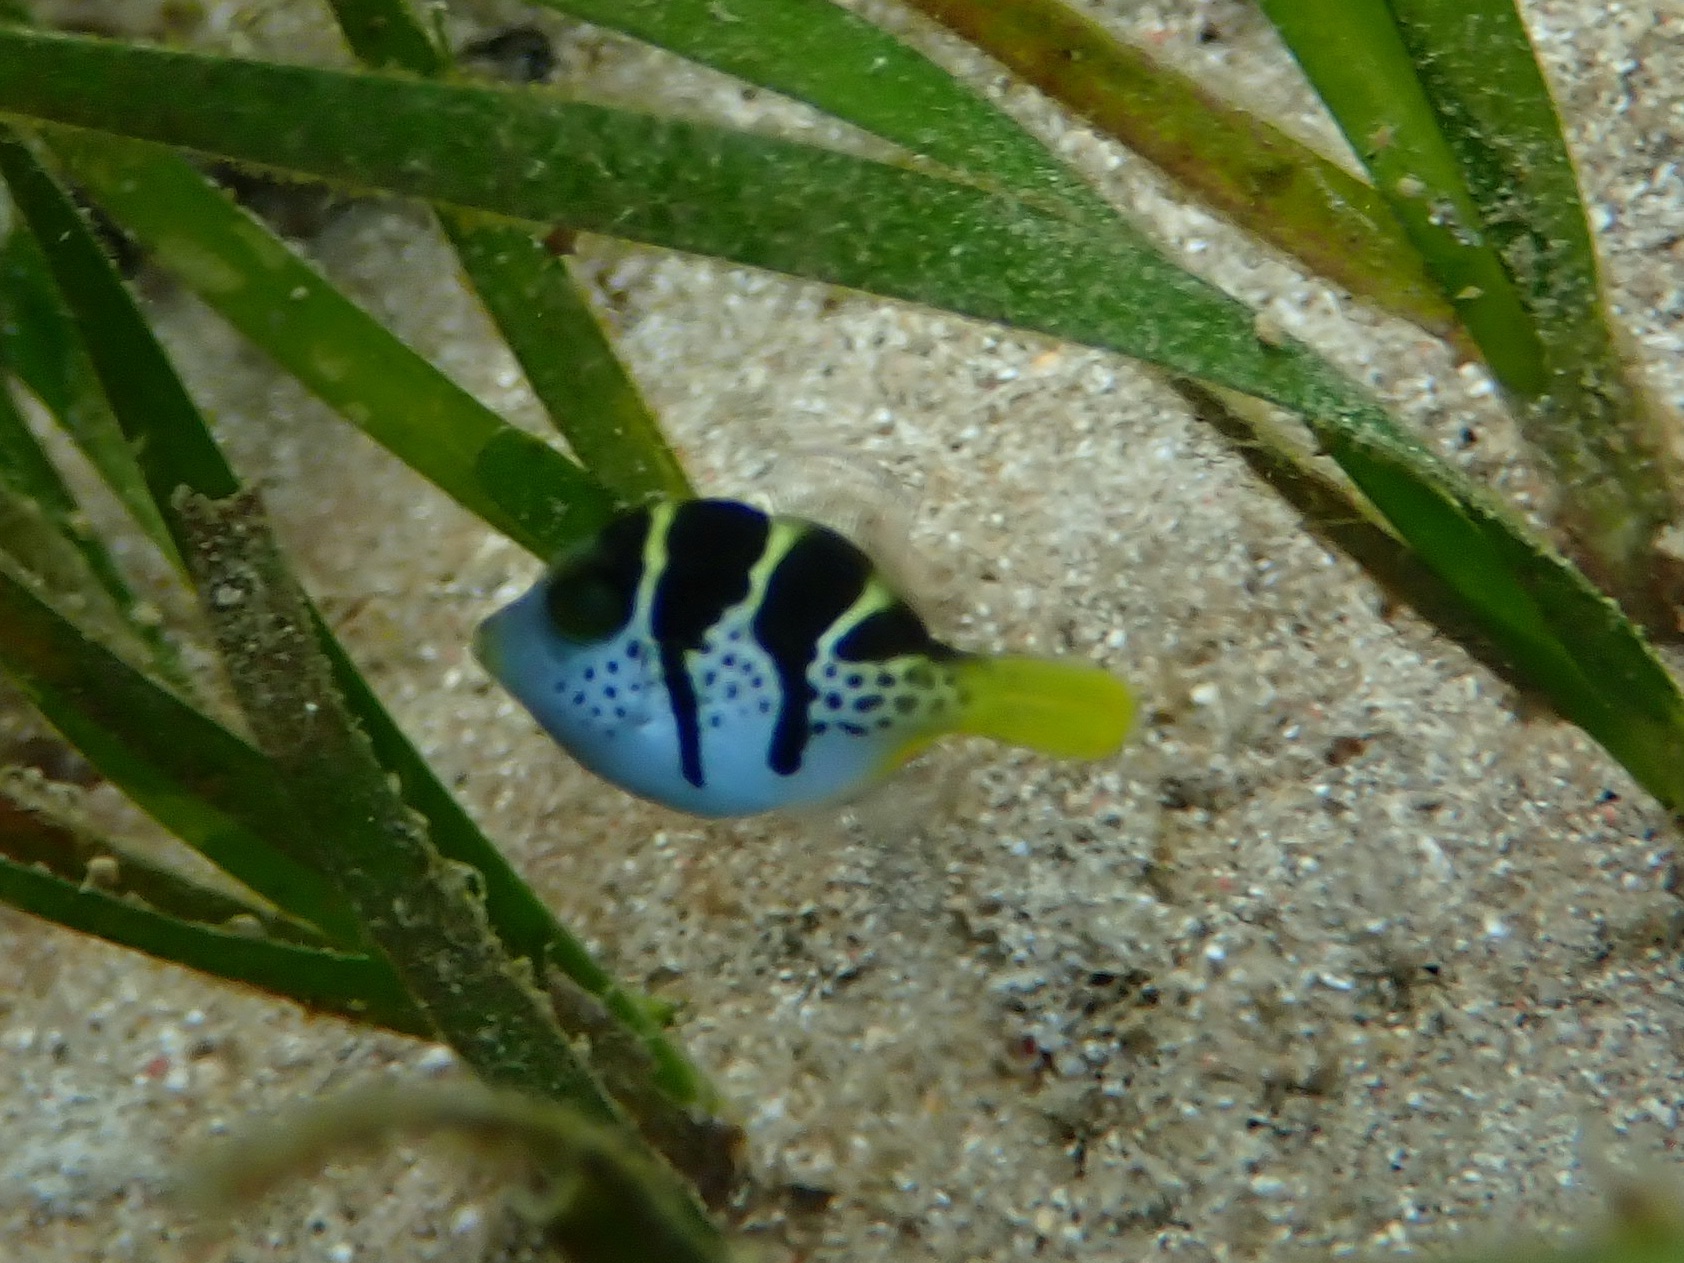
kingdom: Animalia
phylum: Chordata
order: Tetraodontiformes
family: Monacanthidae
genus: Paraluteres
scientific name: Paraluteres prionurus
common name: Black-saddled leatherjacket
